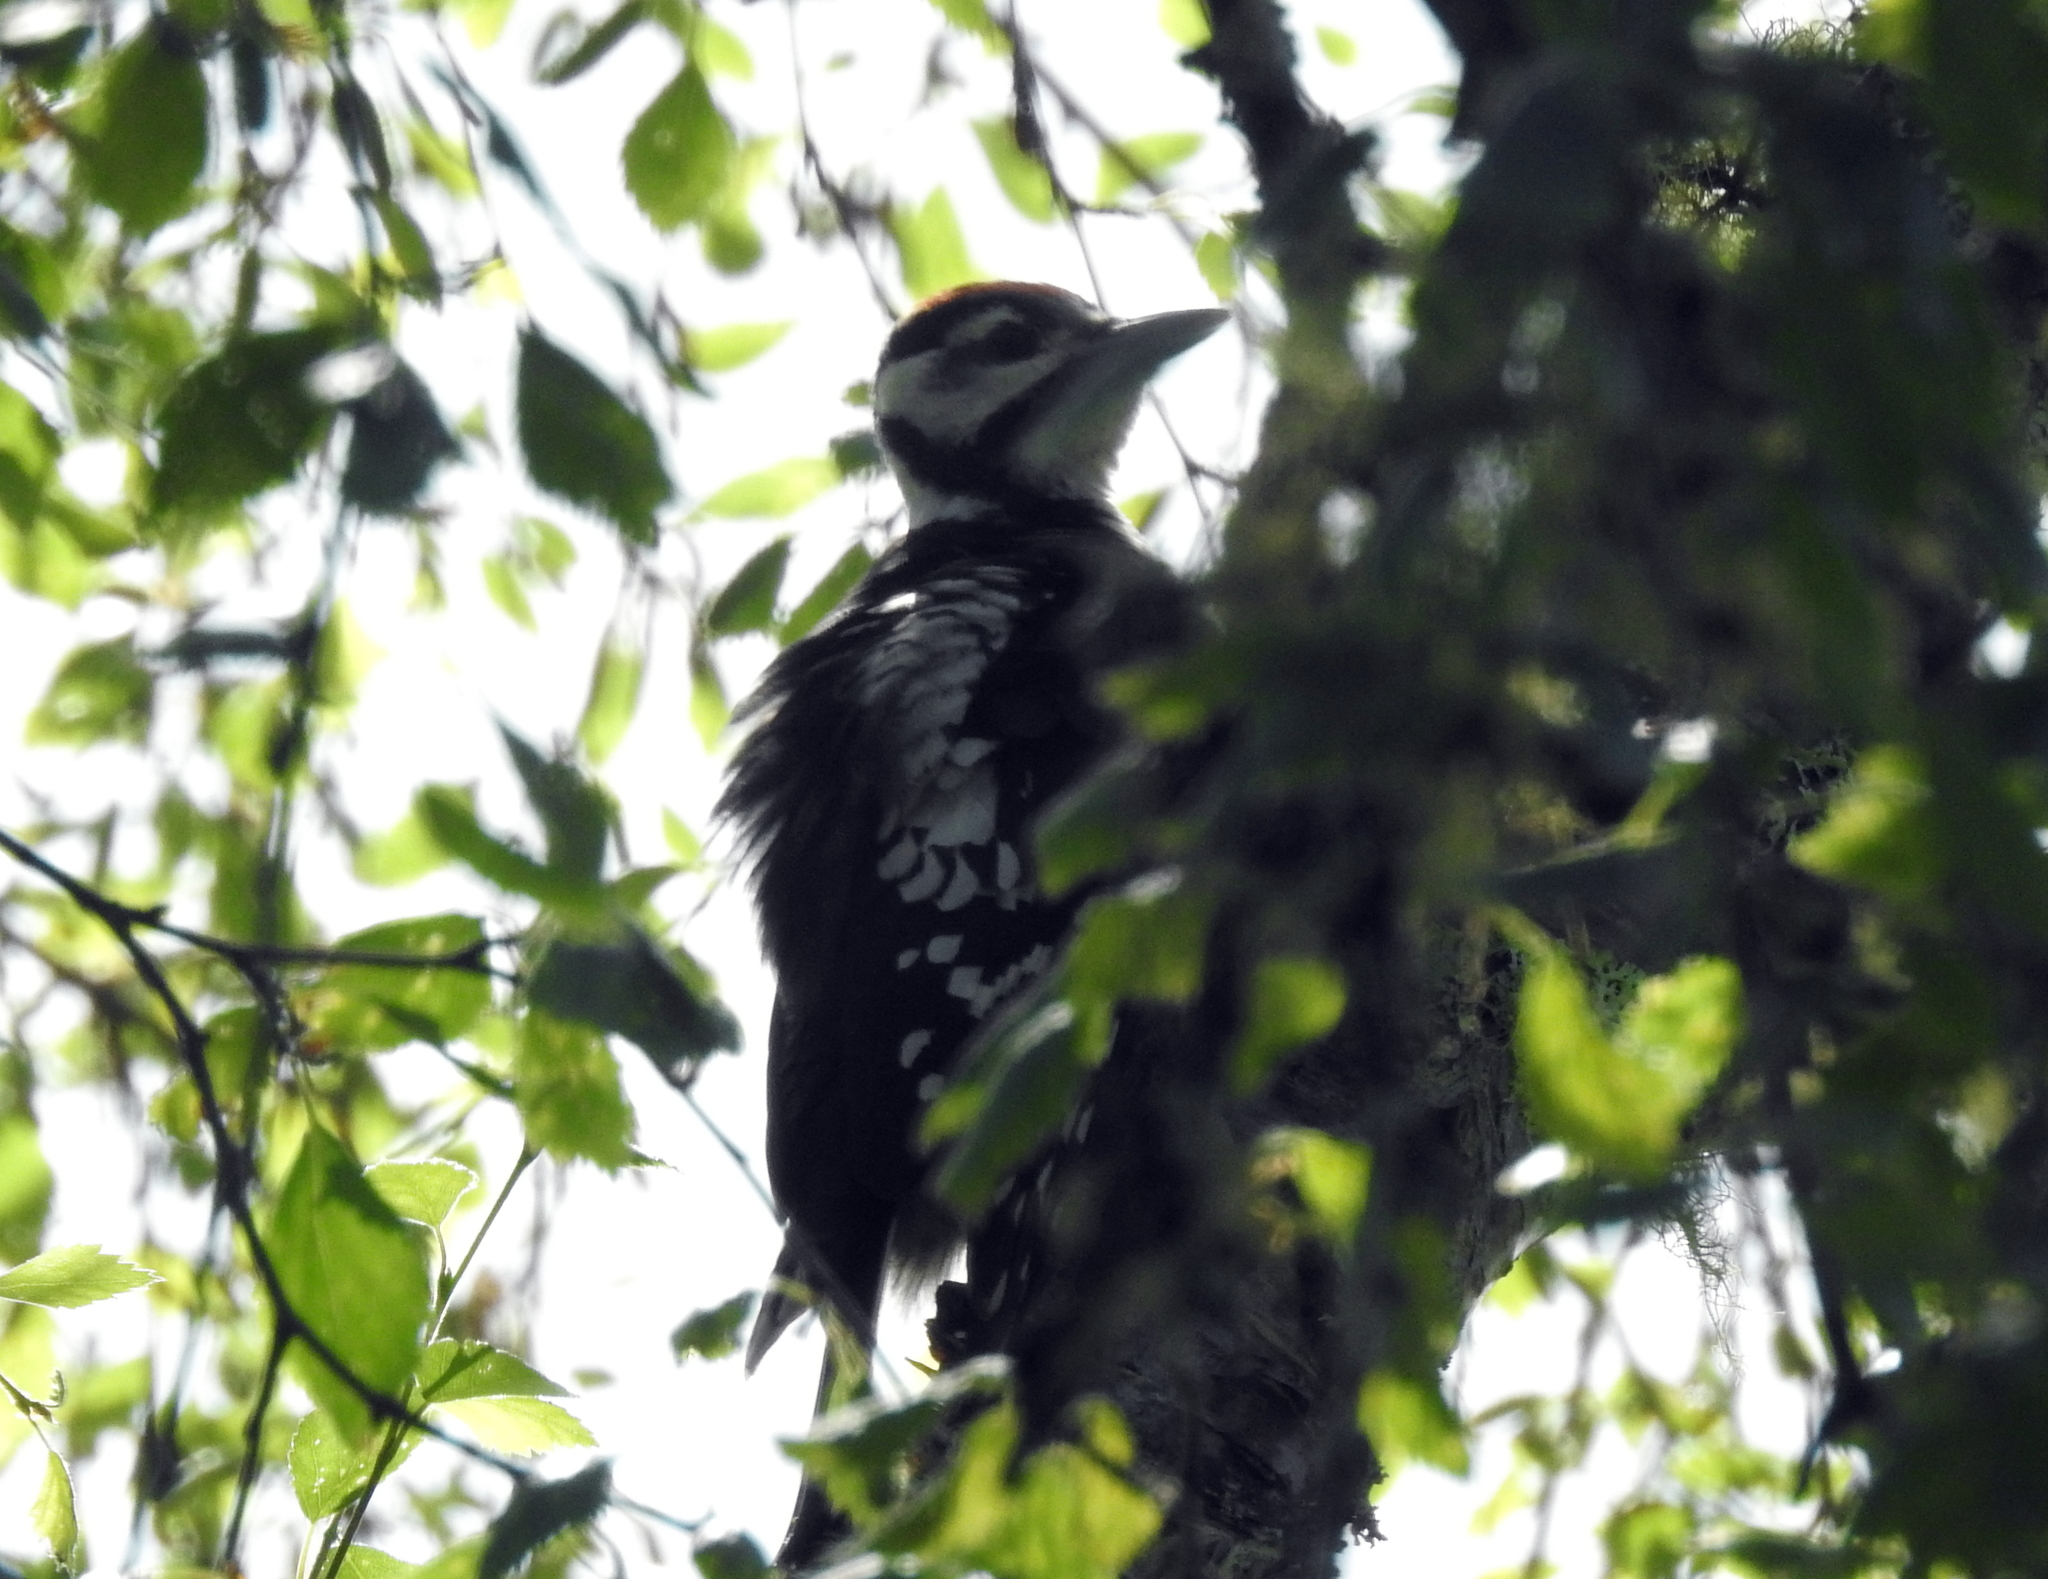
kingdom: Animalia
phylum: Chordata
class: Aves
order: Piciformes
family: Picidae
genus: Dendrocopos
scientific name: Dendrocopos major
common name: Great spotted woodpecker
